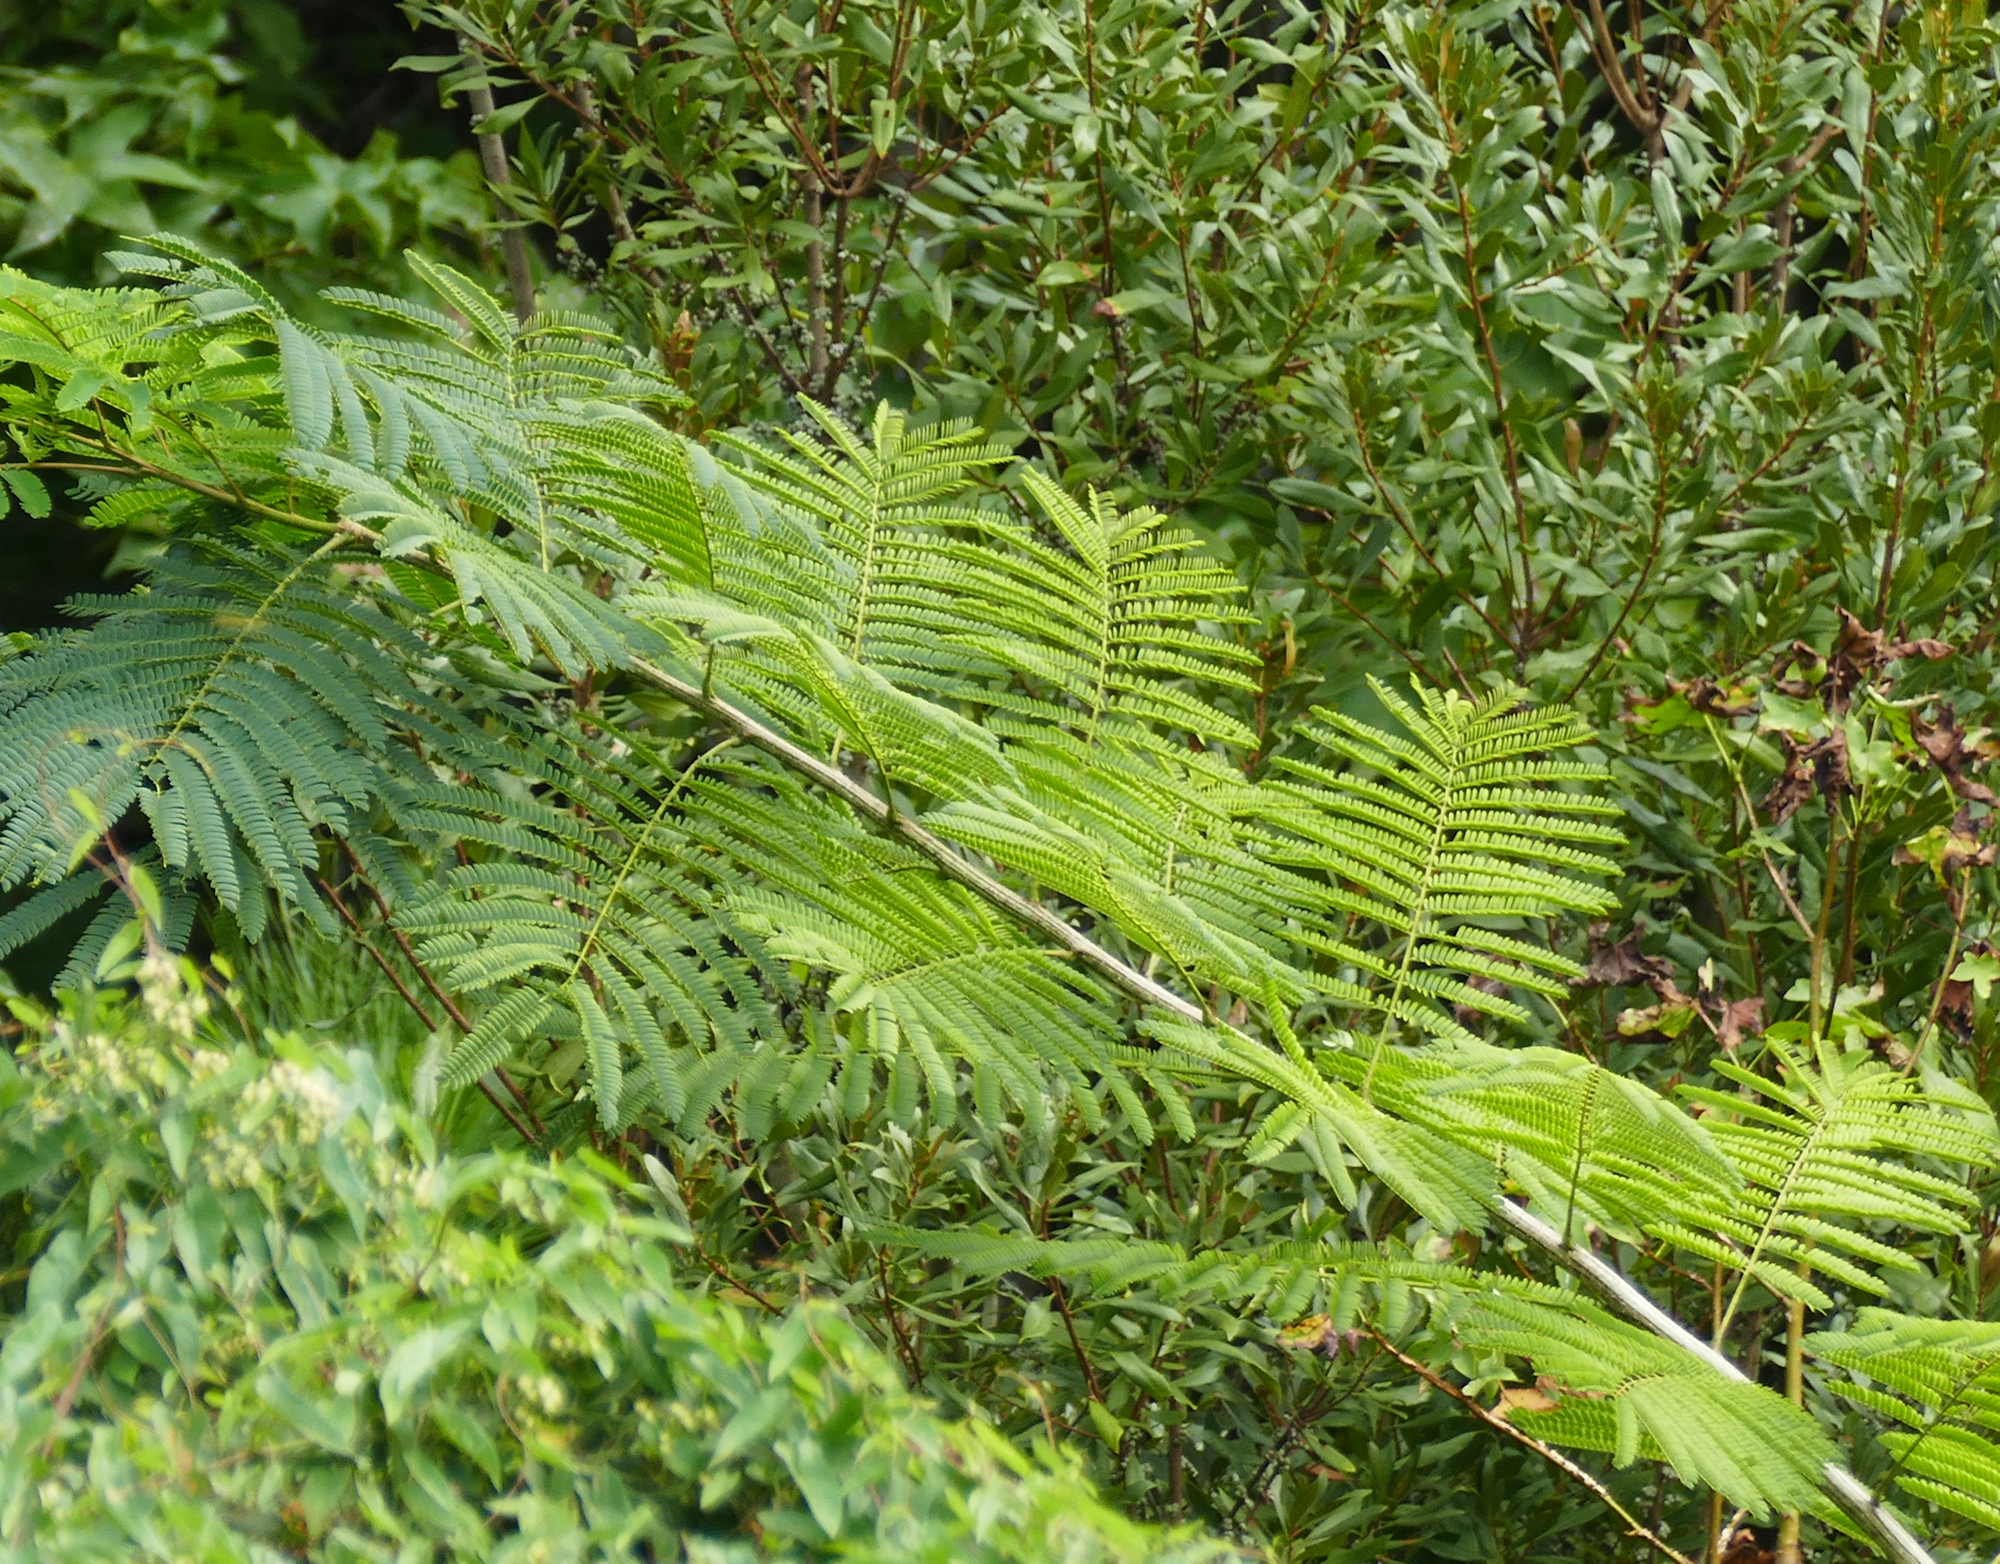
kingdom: Plantae
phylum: Tracheophyta
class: Magnoliopsida
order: Fabales
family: Fabaceae
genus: Albizia
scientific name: Albizia julibrissin
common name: Silktree
